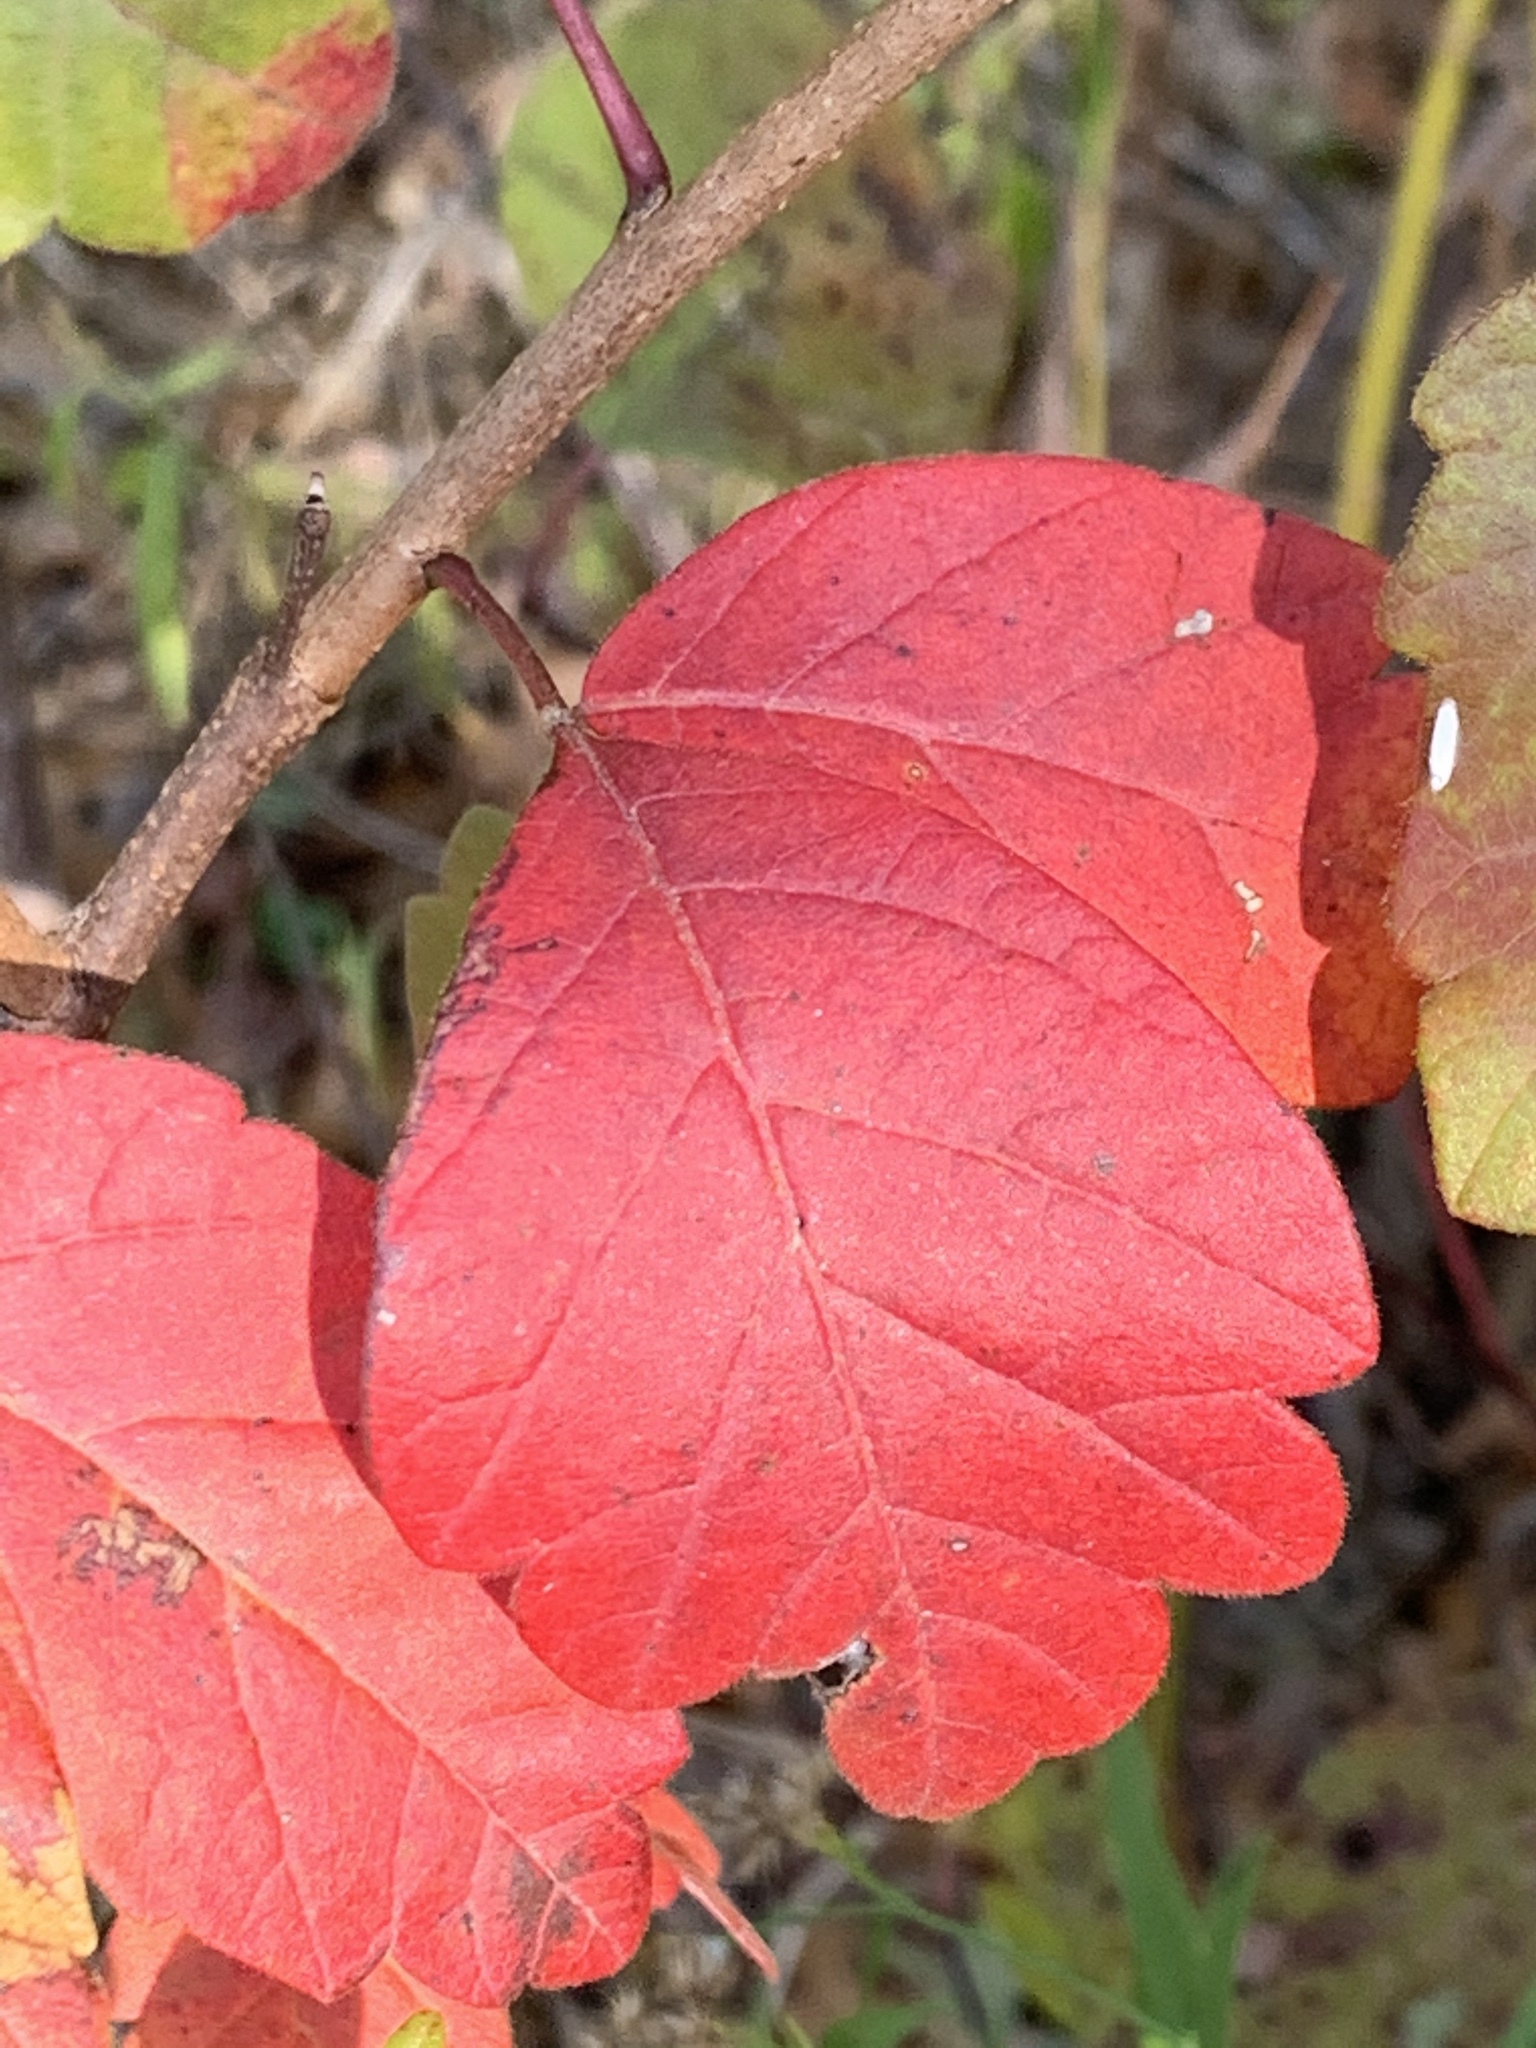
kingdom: Plantae
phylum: Tracheophyta
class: Magnoliopsida
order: Sapindales
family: Anacardiaceae
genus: Rhus
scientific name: Rhus aromatica
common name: Aromatic sumac
